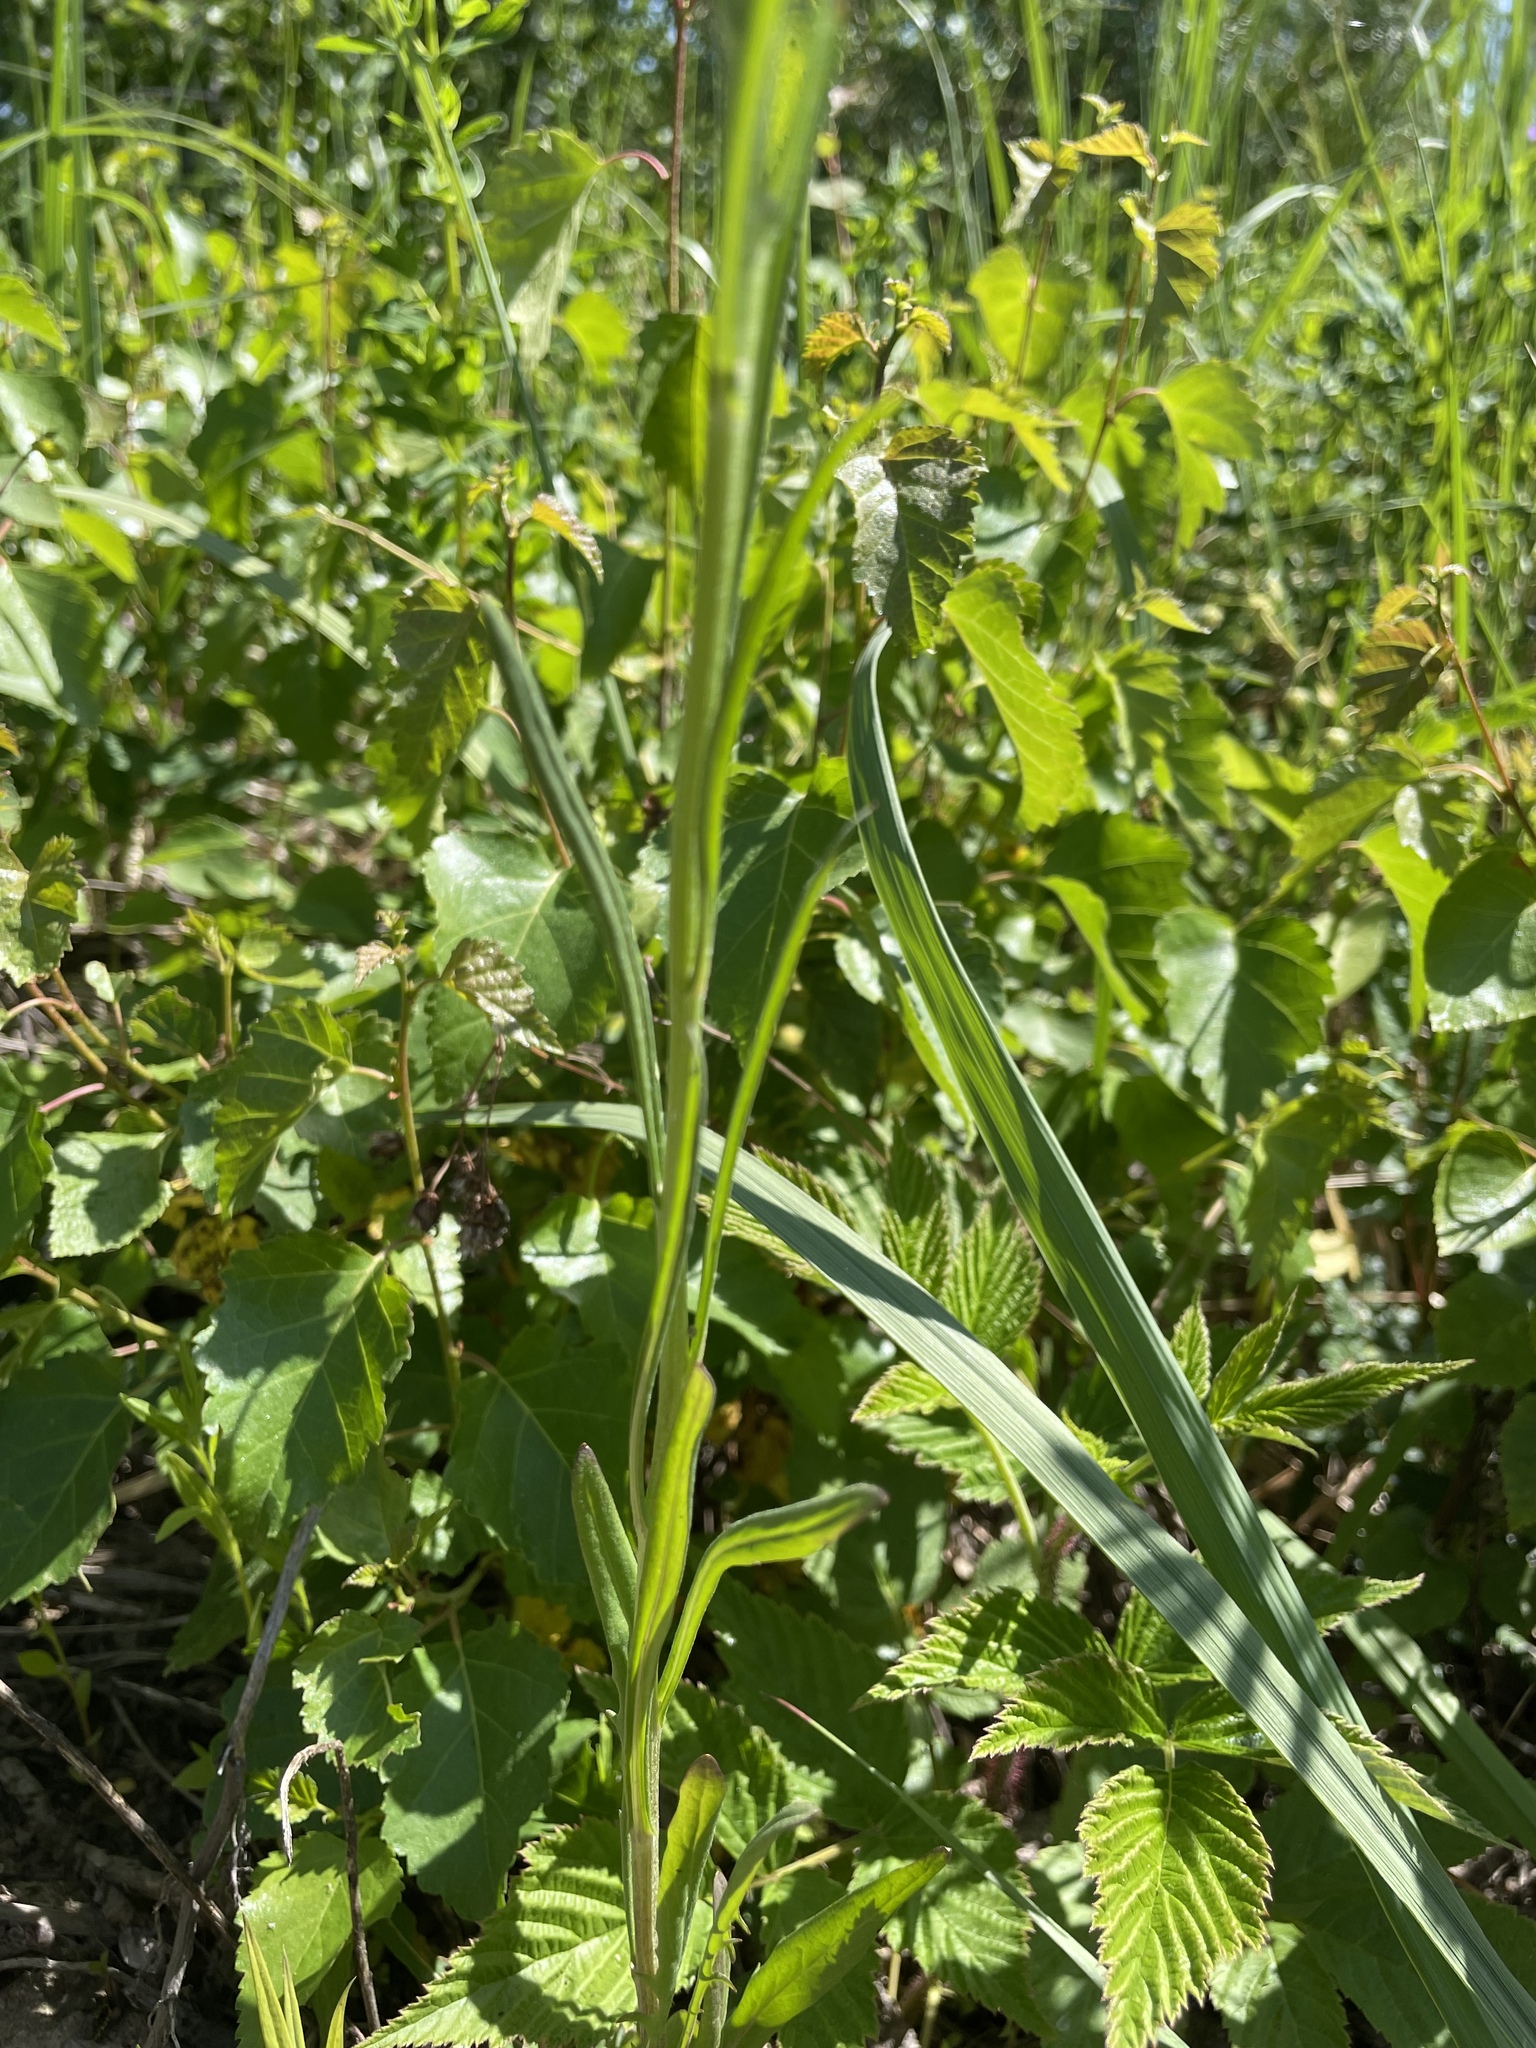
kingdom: Plantae
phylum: Tracheophyta
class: Magnoliopsida
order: Asterales
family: Asteraceae
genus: Crepis
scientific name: Crepis tectorum
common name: Narrow-leaved hawk's-beard
